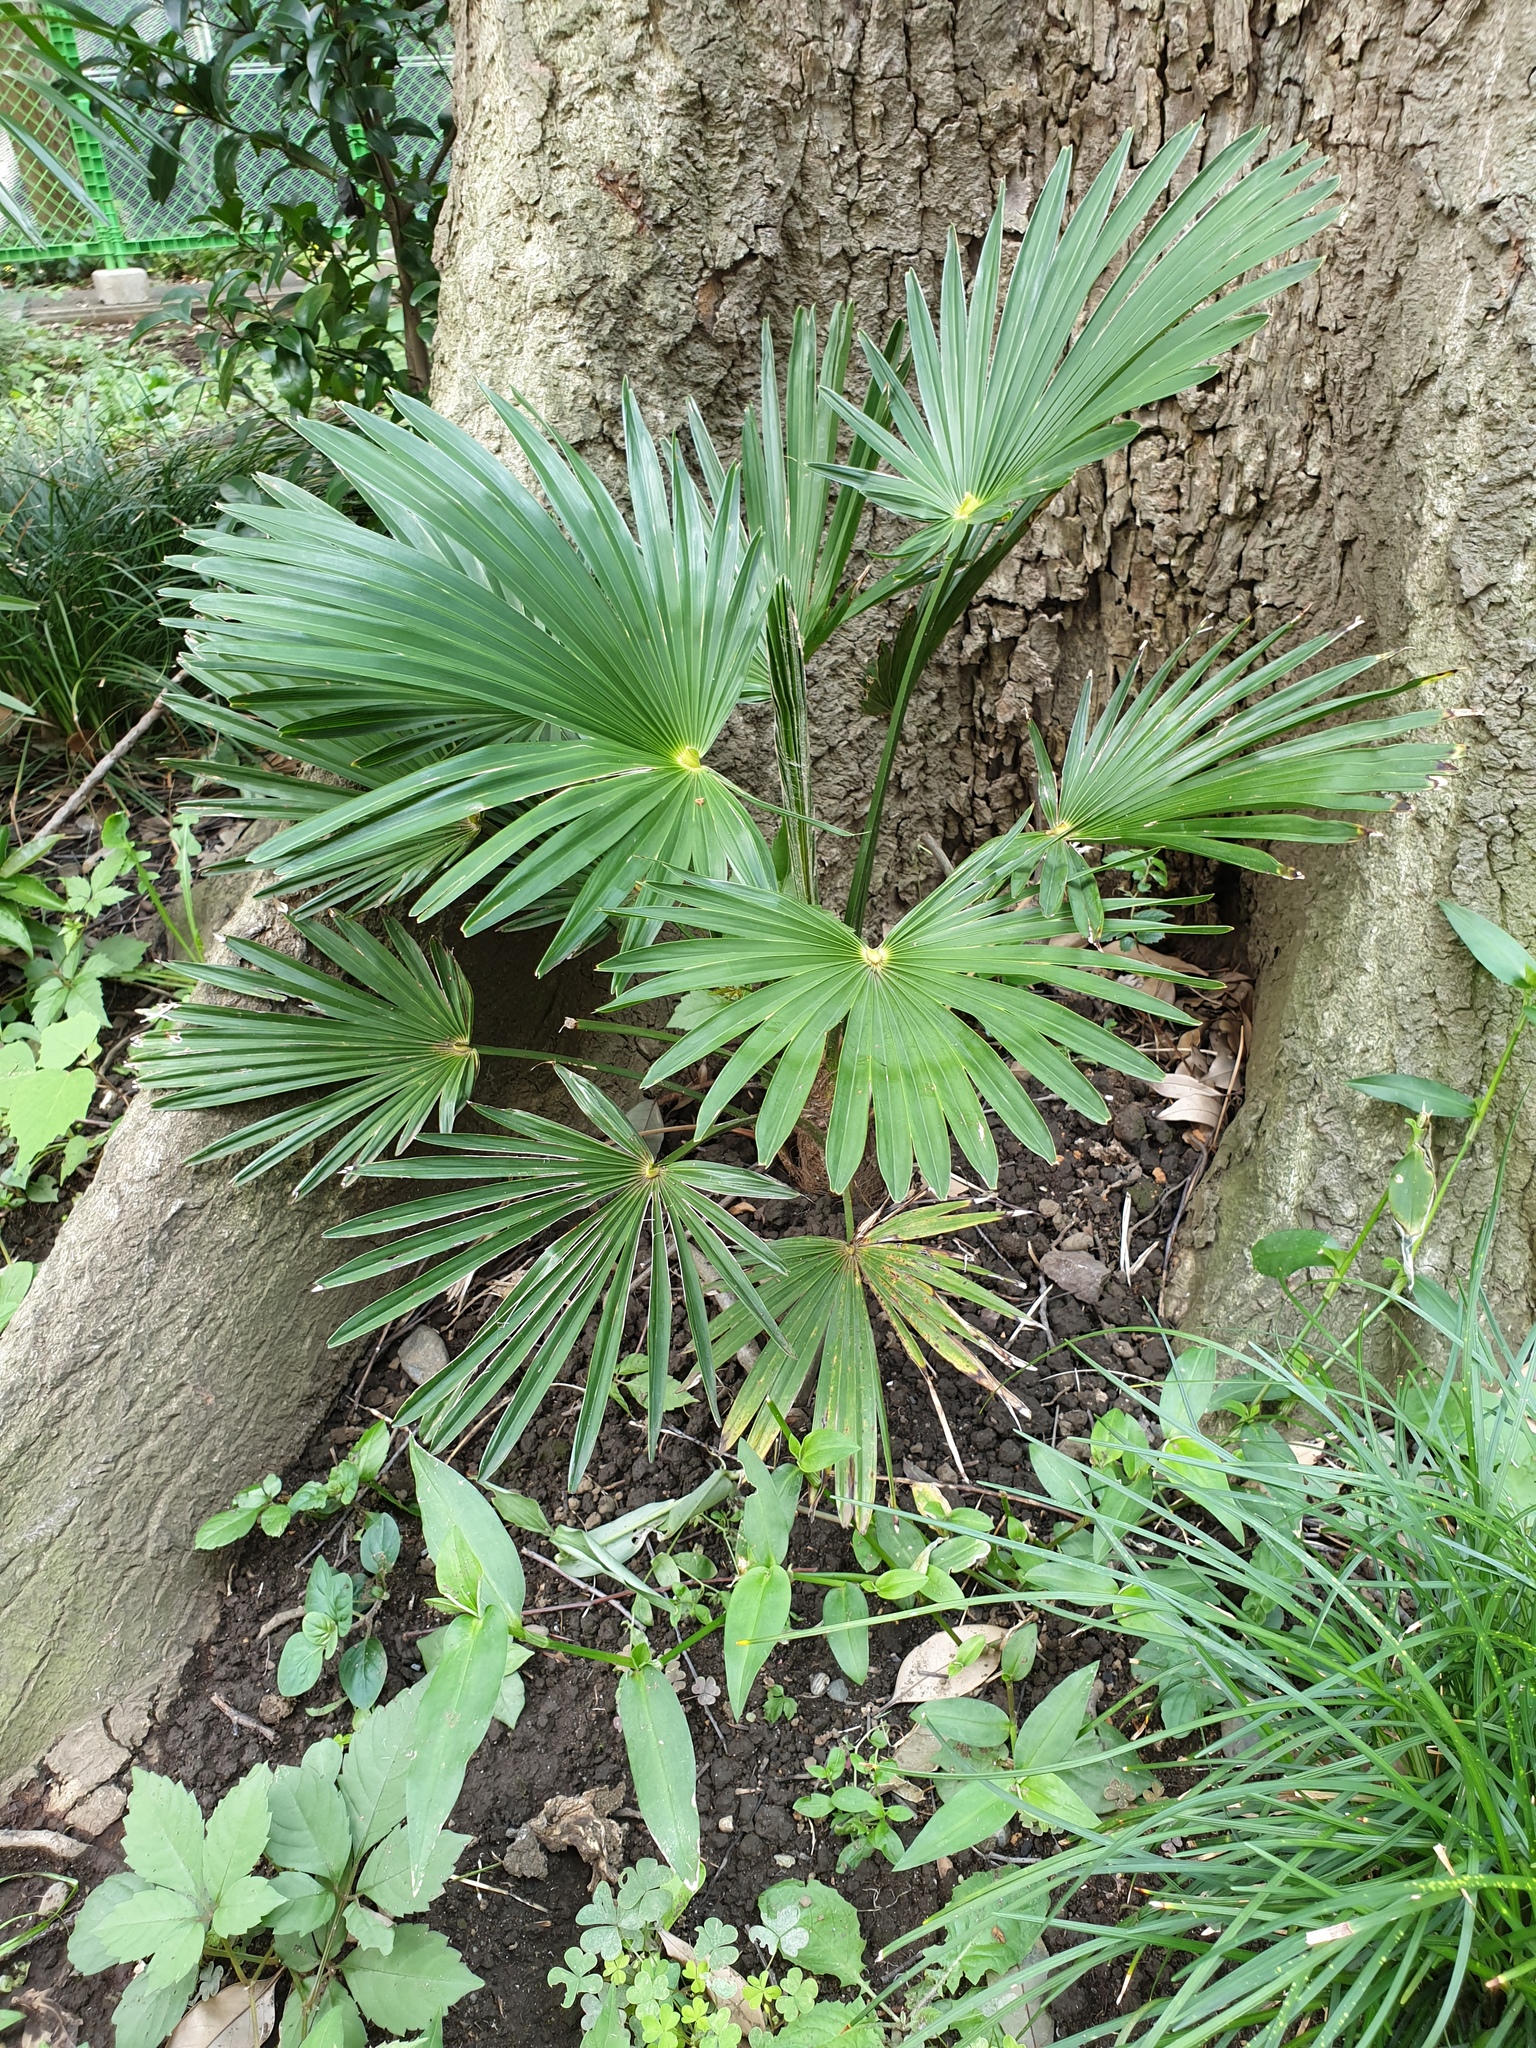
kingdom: Plantae
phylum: Tracheophyta
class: Liliopsida
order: Arecales
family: Arecaceae
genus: Trachycarpus
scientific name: Trachycarpus fortunei
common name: Chusan palm
